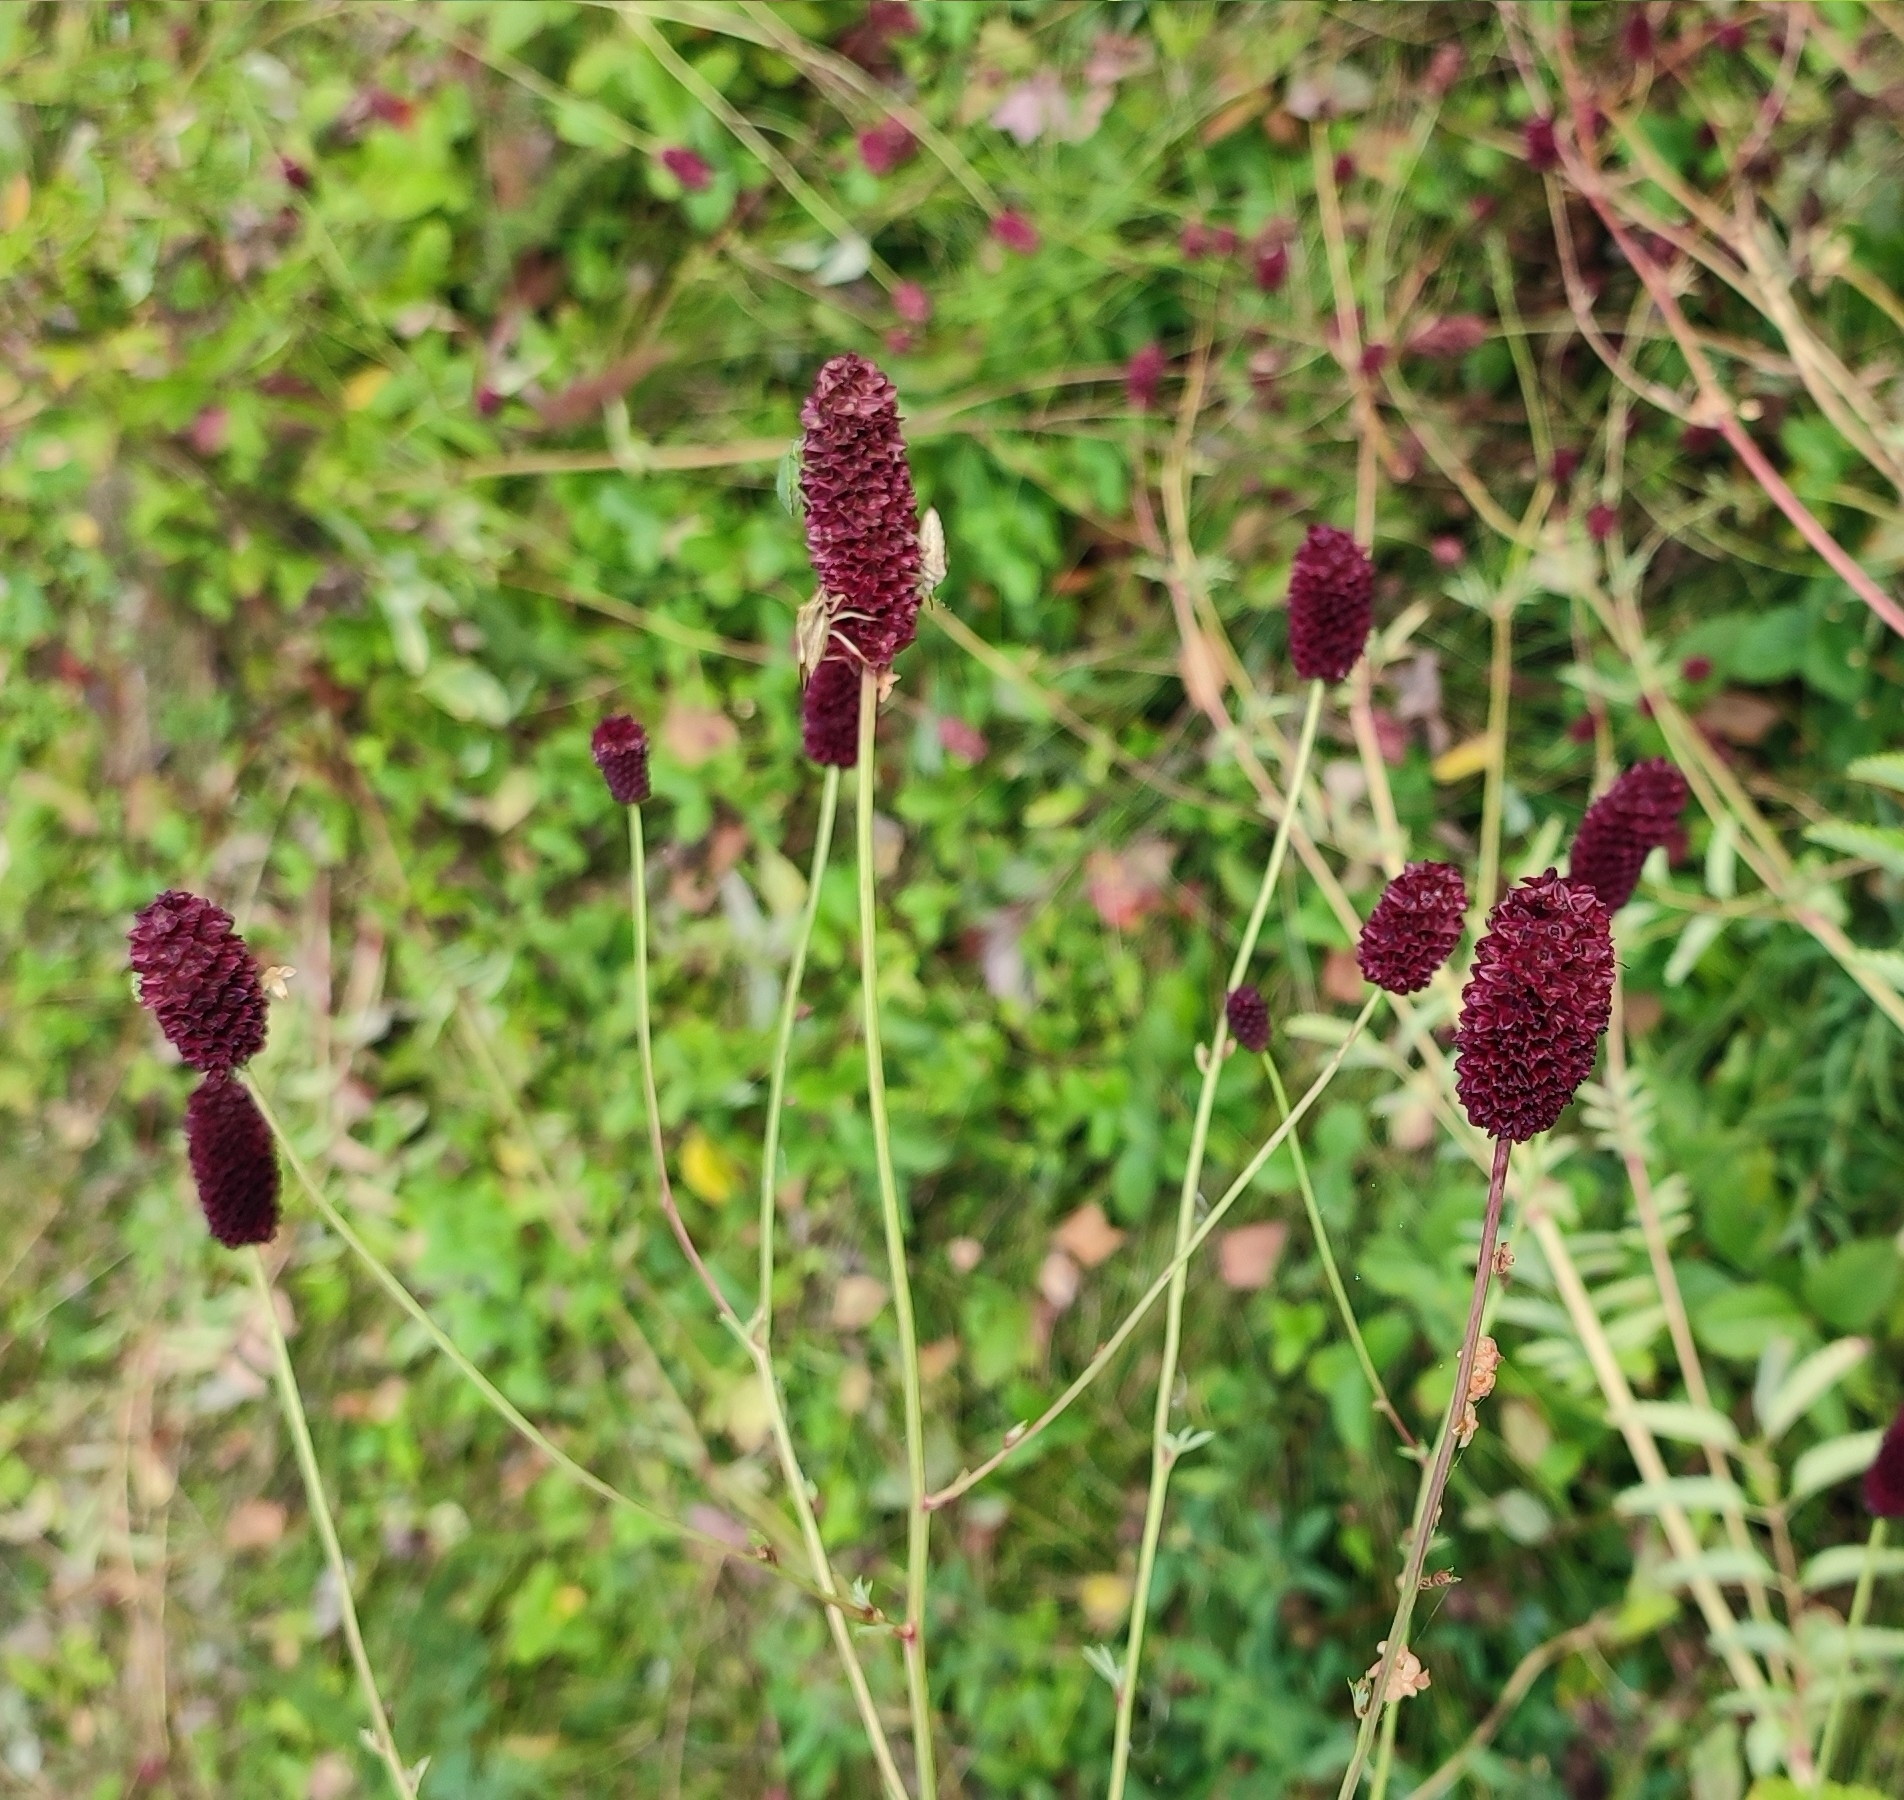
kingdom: Plantae
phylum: Tracheophyta
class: Magnoliopsida
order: Rosales
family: Rosaceae
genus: Sanguisorba
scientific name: Sanguisorba officinalis
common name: Great burnet
